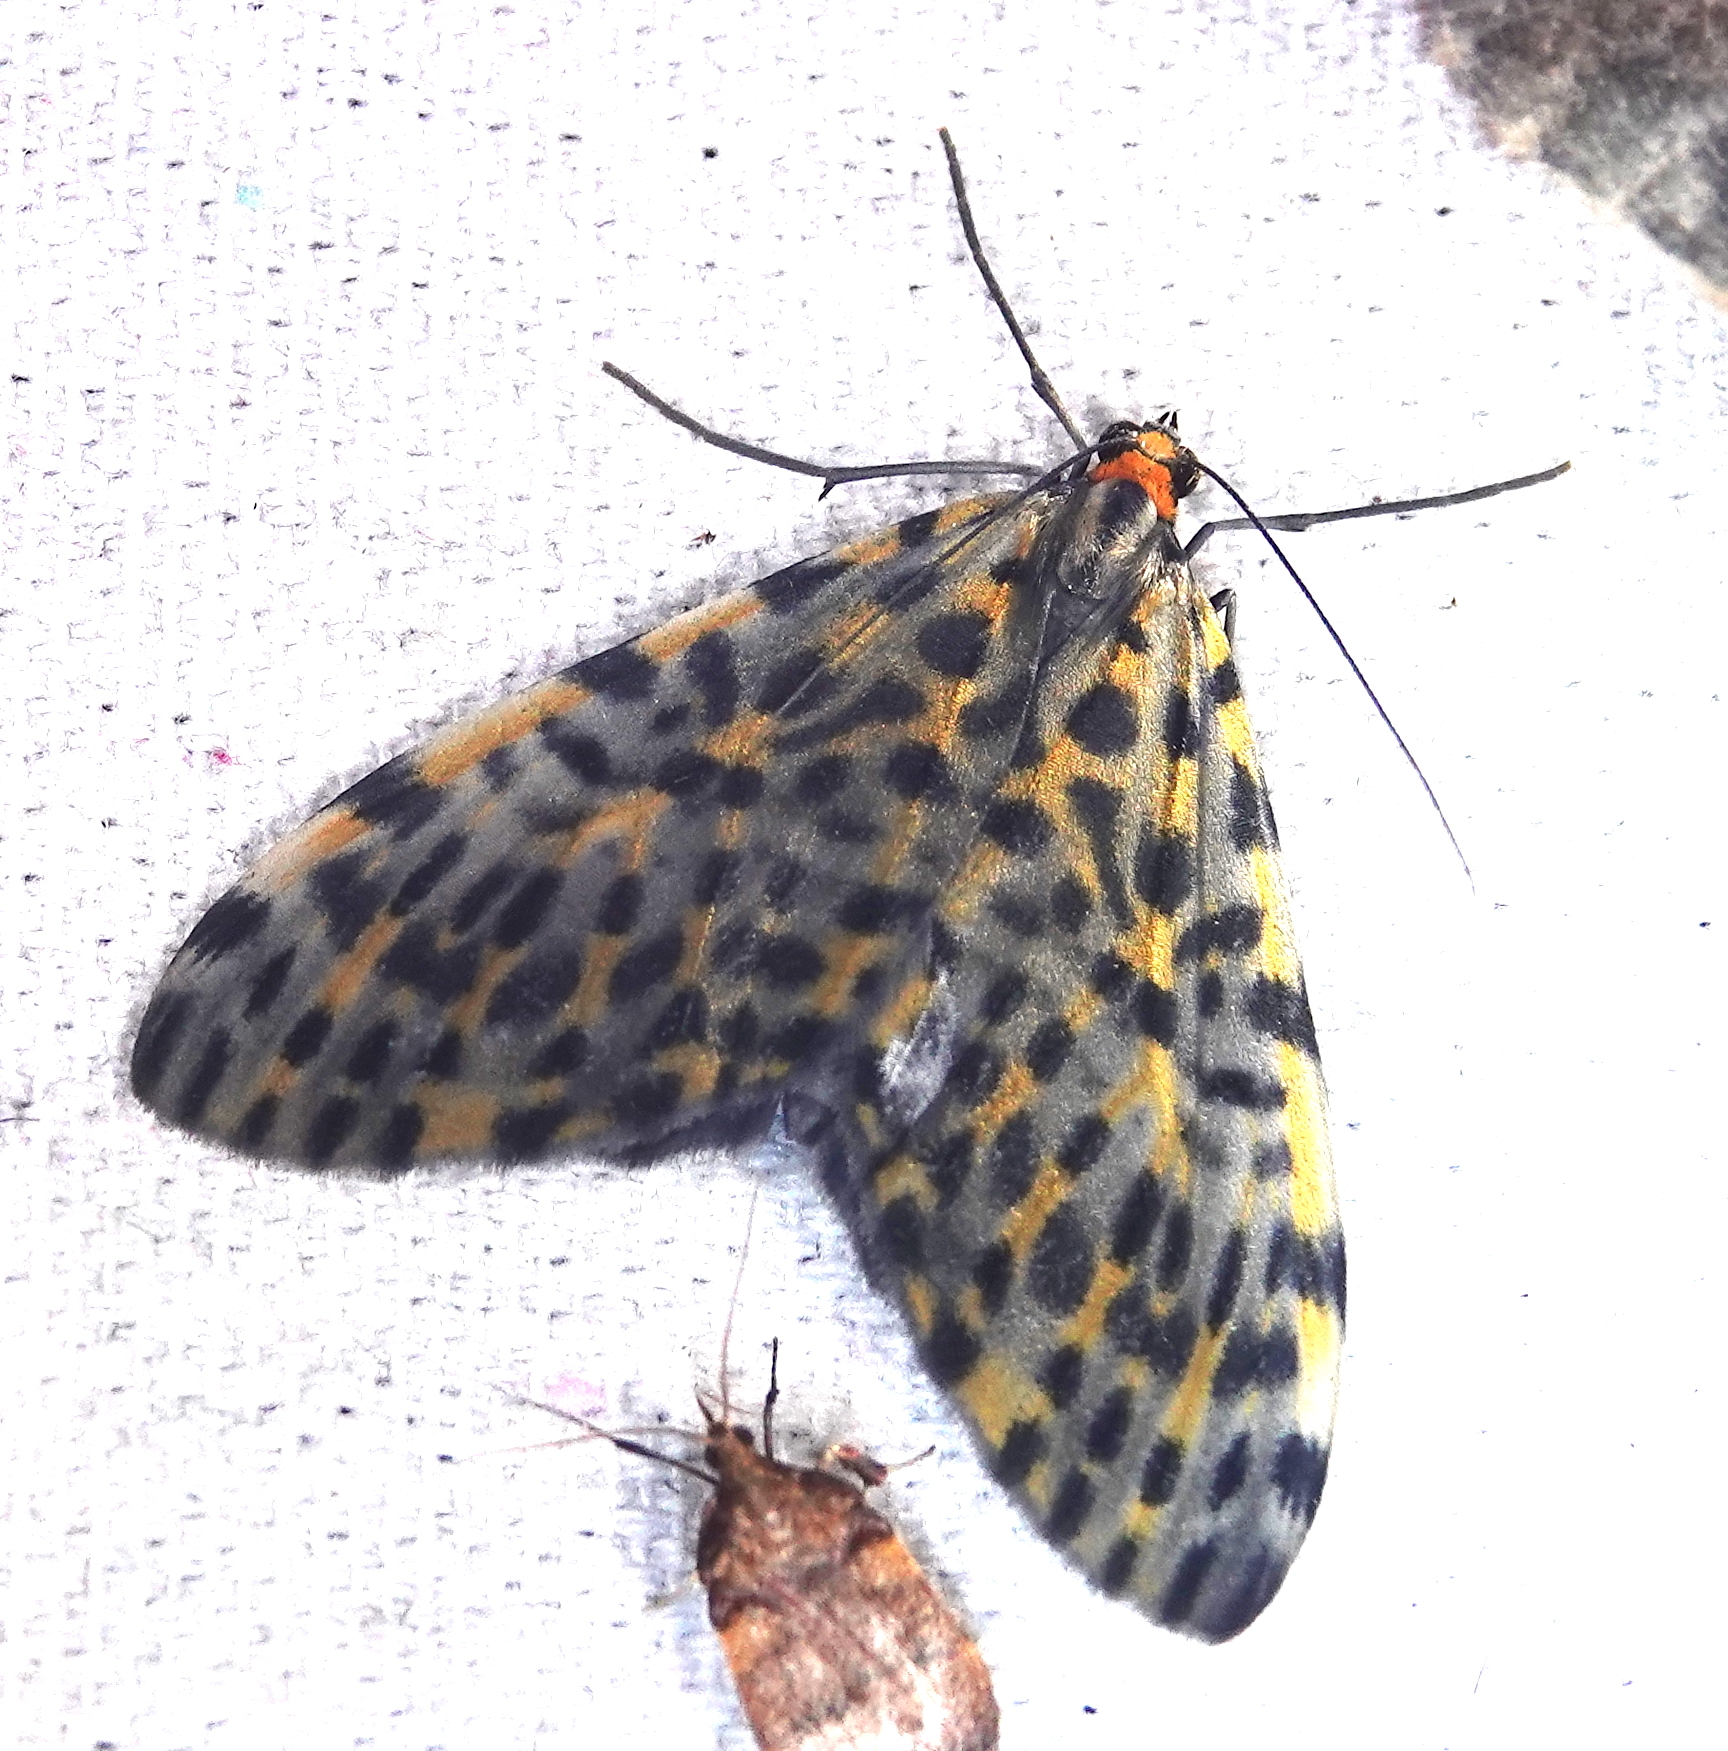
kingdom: Animalia
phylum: Arthropoda
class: Insecta
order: Lepidoptera
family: Geometridae
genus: Graphidipus
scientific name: Graphidipus fulvicostaria
